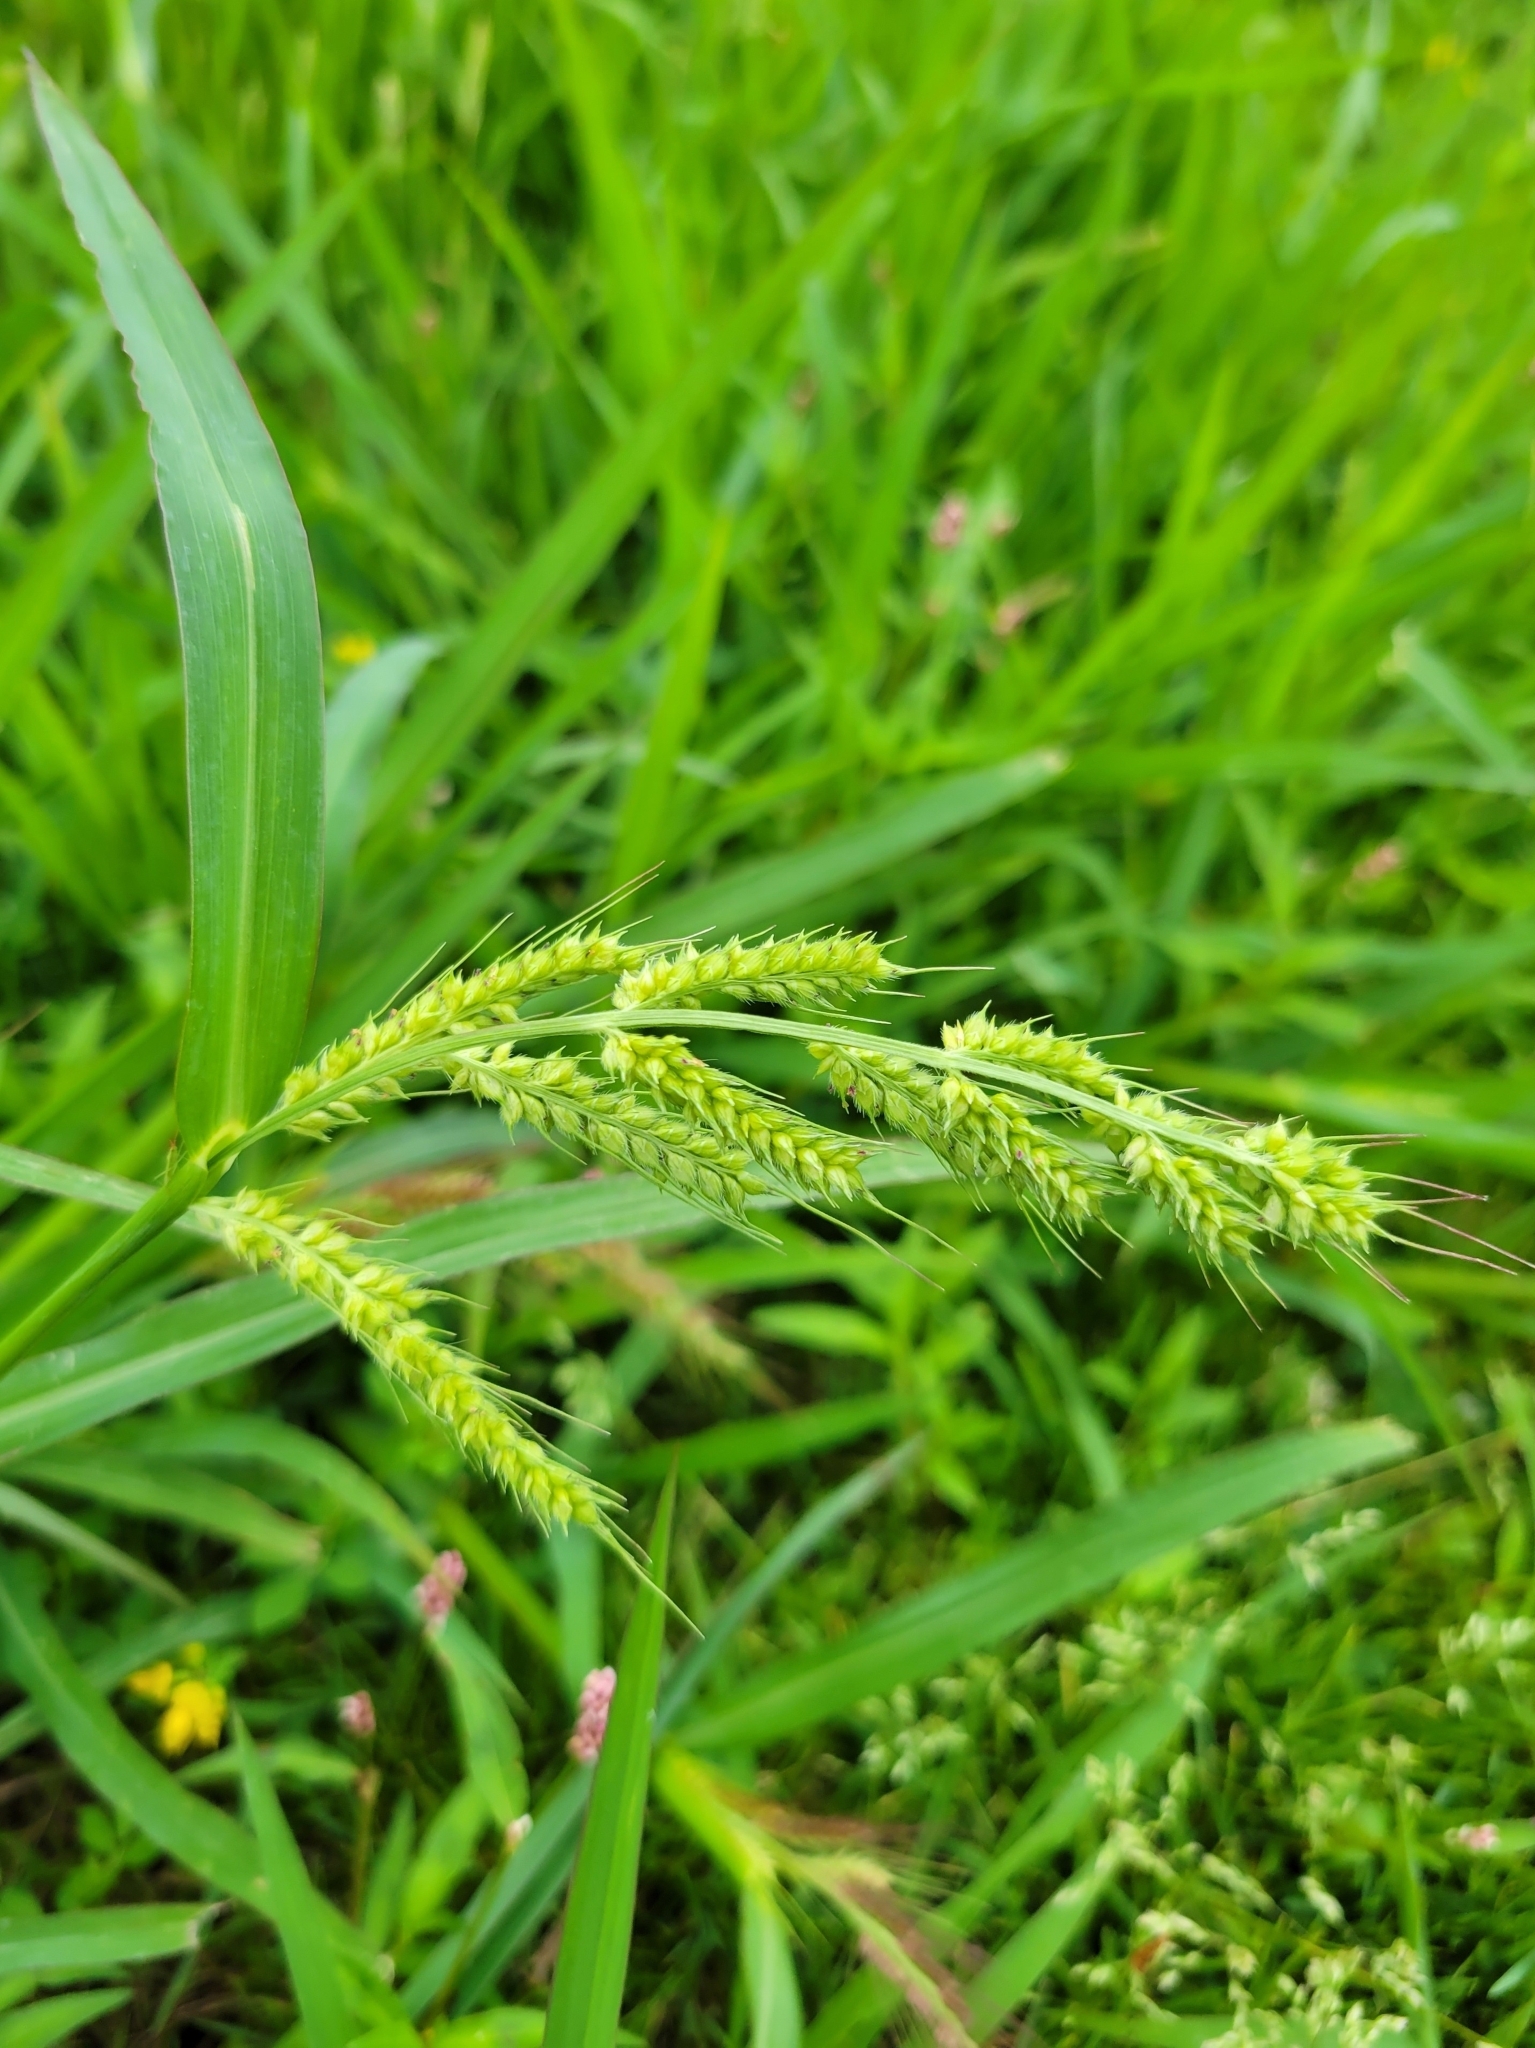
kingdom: Plantae
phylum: Tracheophyta
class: Liliopsida
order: Poales
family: Poaceae
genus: Echinochloa
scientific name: Echinochloa crus-galli
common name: Cockspur
